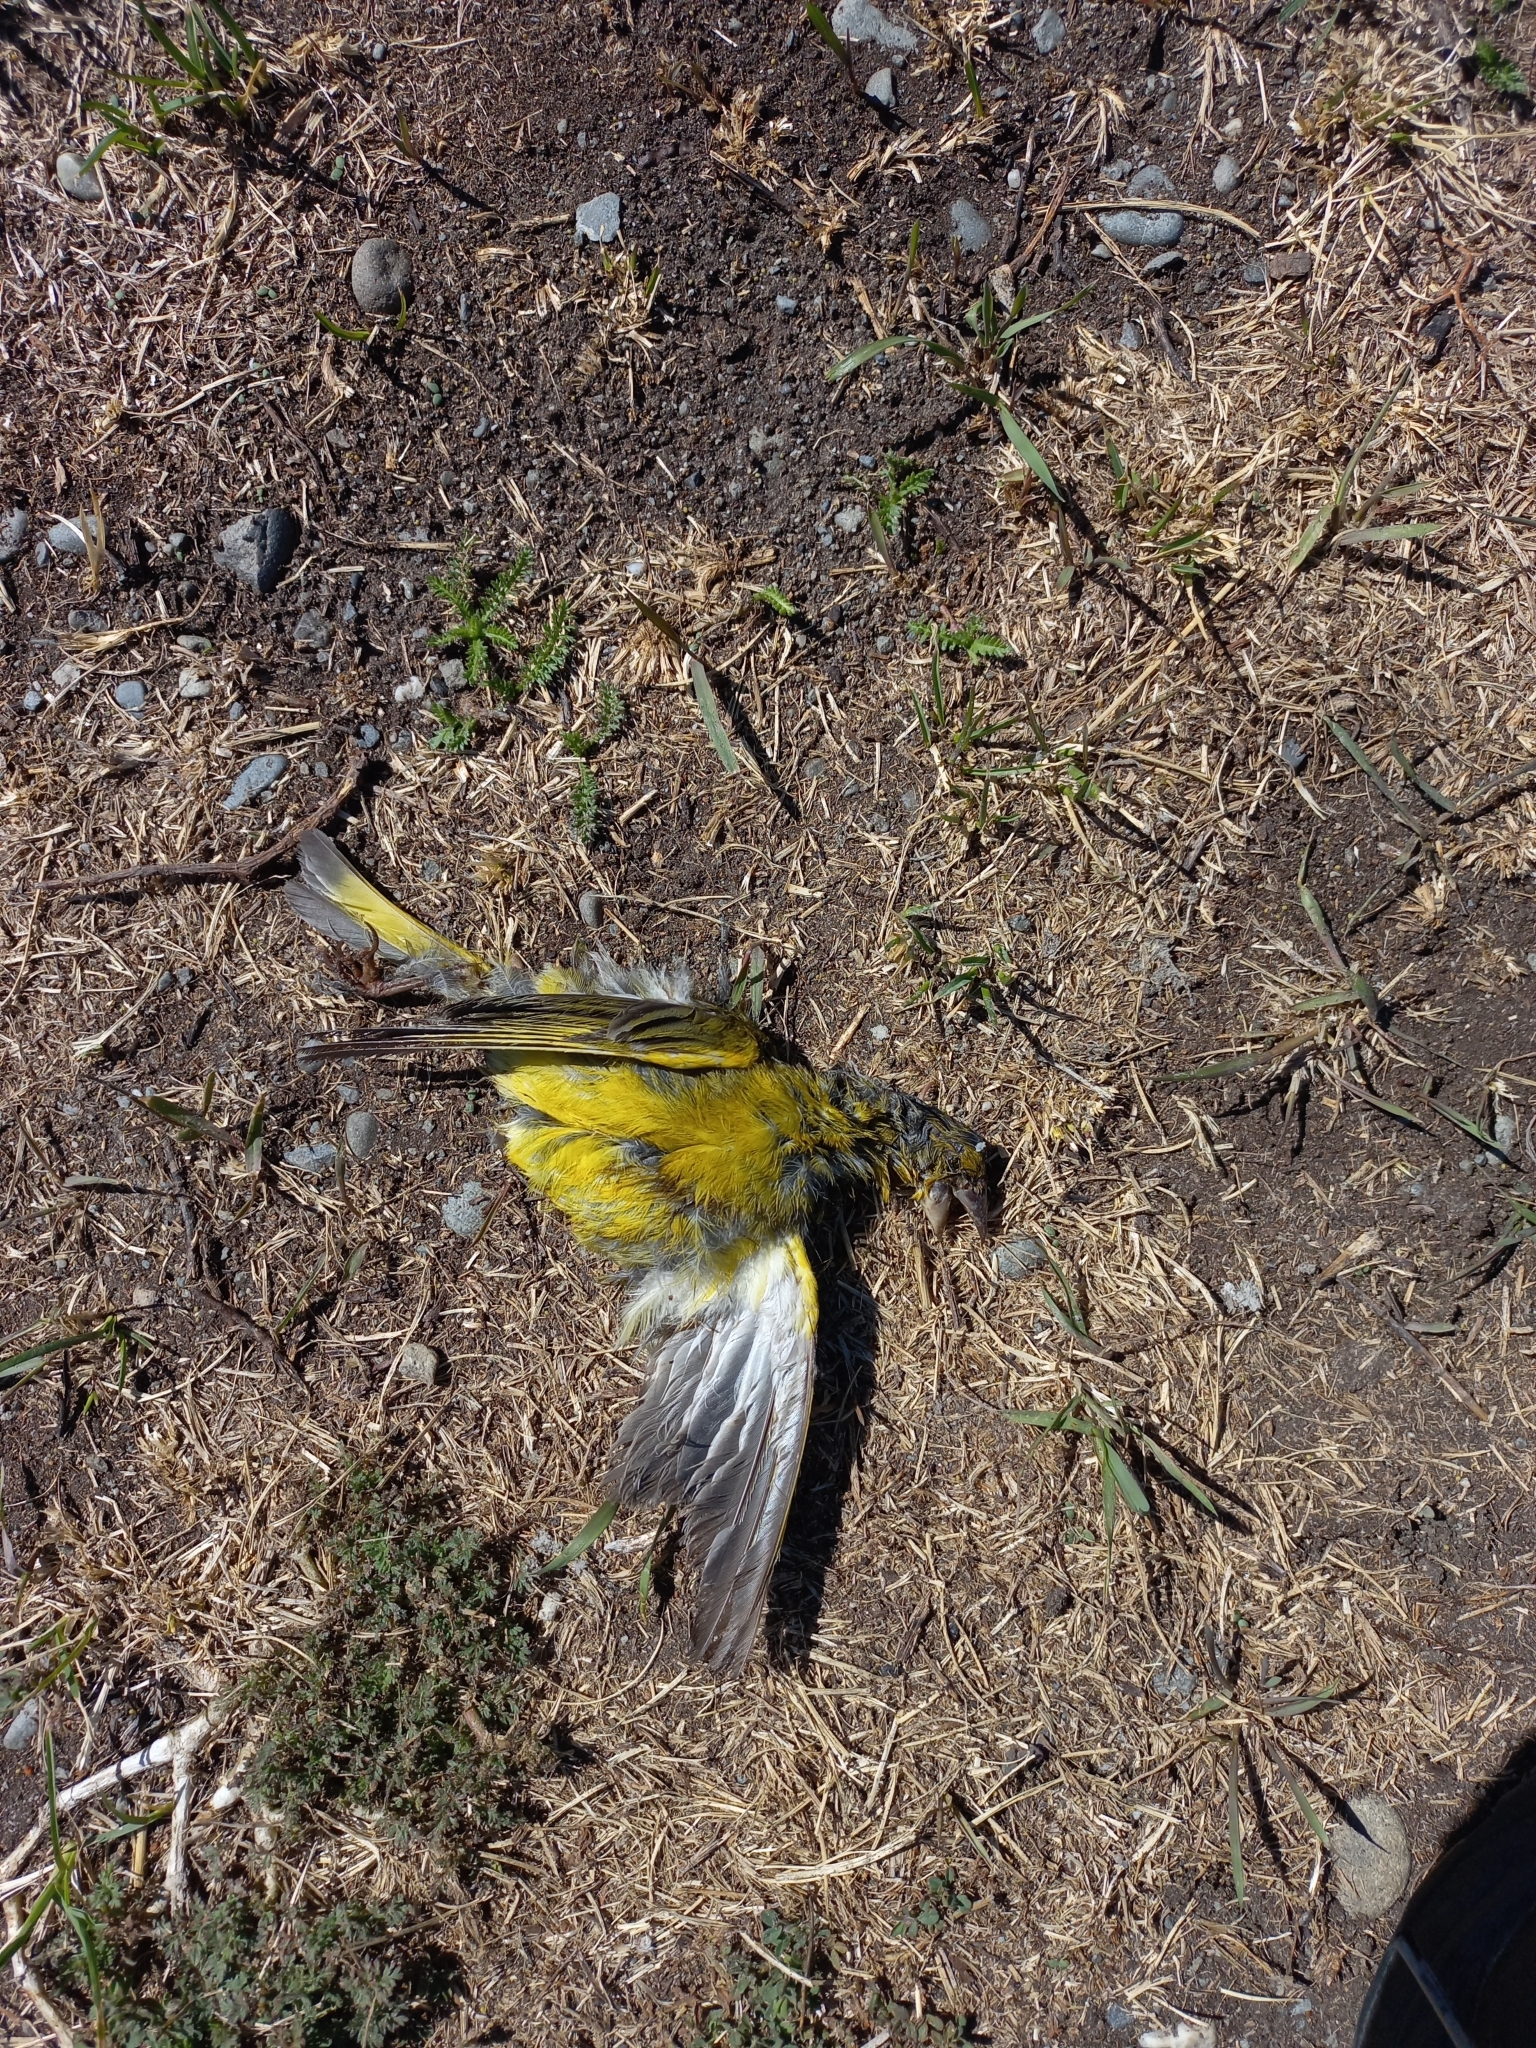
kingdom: Plantae
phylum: Tracheophyta
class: Liliopsida
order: Poales
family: Poaceae
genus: Chloris
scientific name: Chloris chloris
